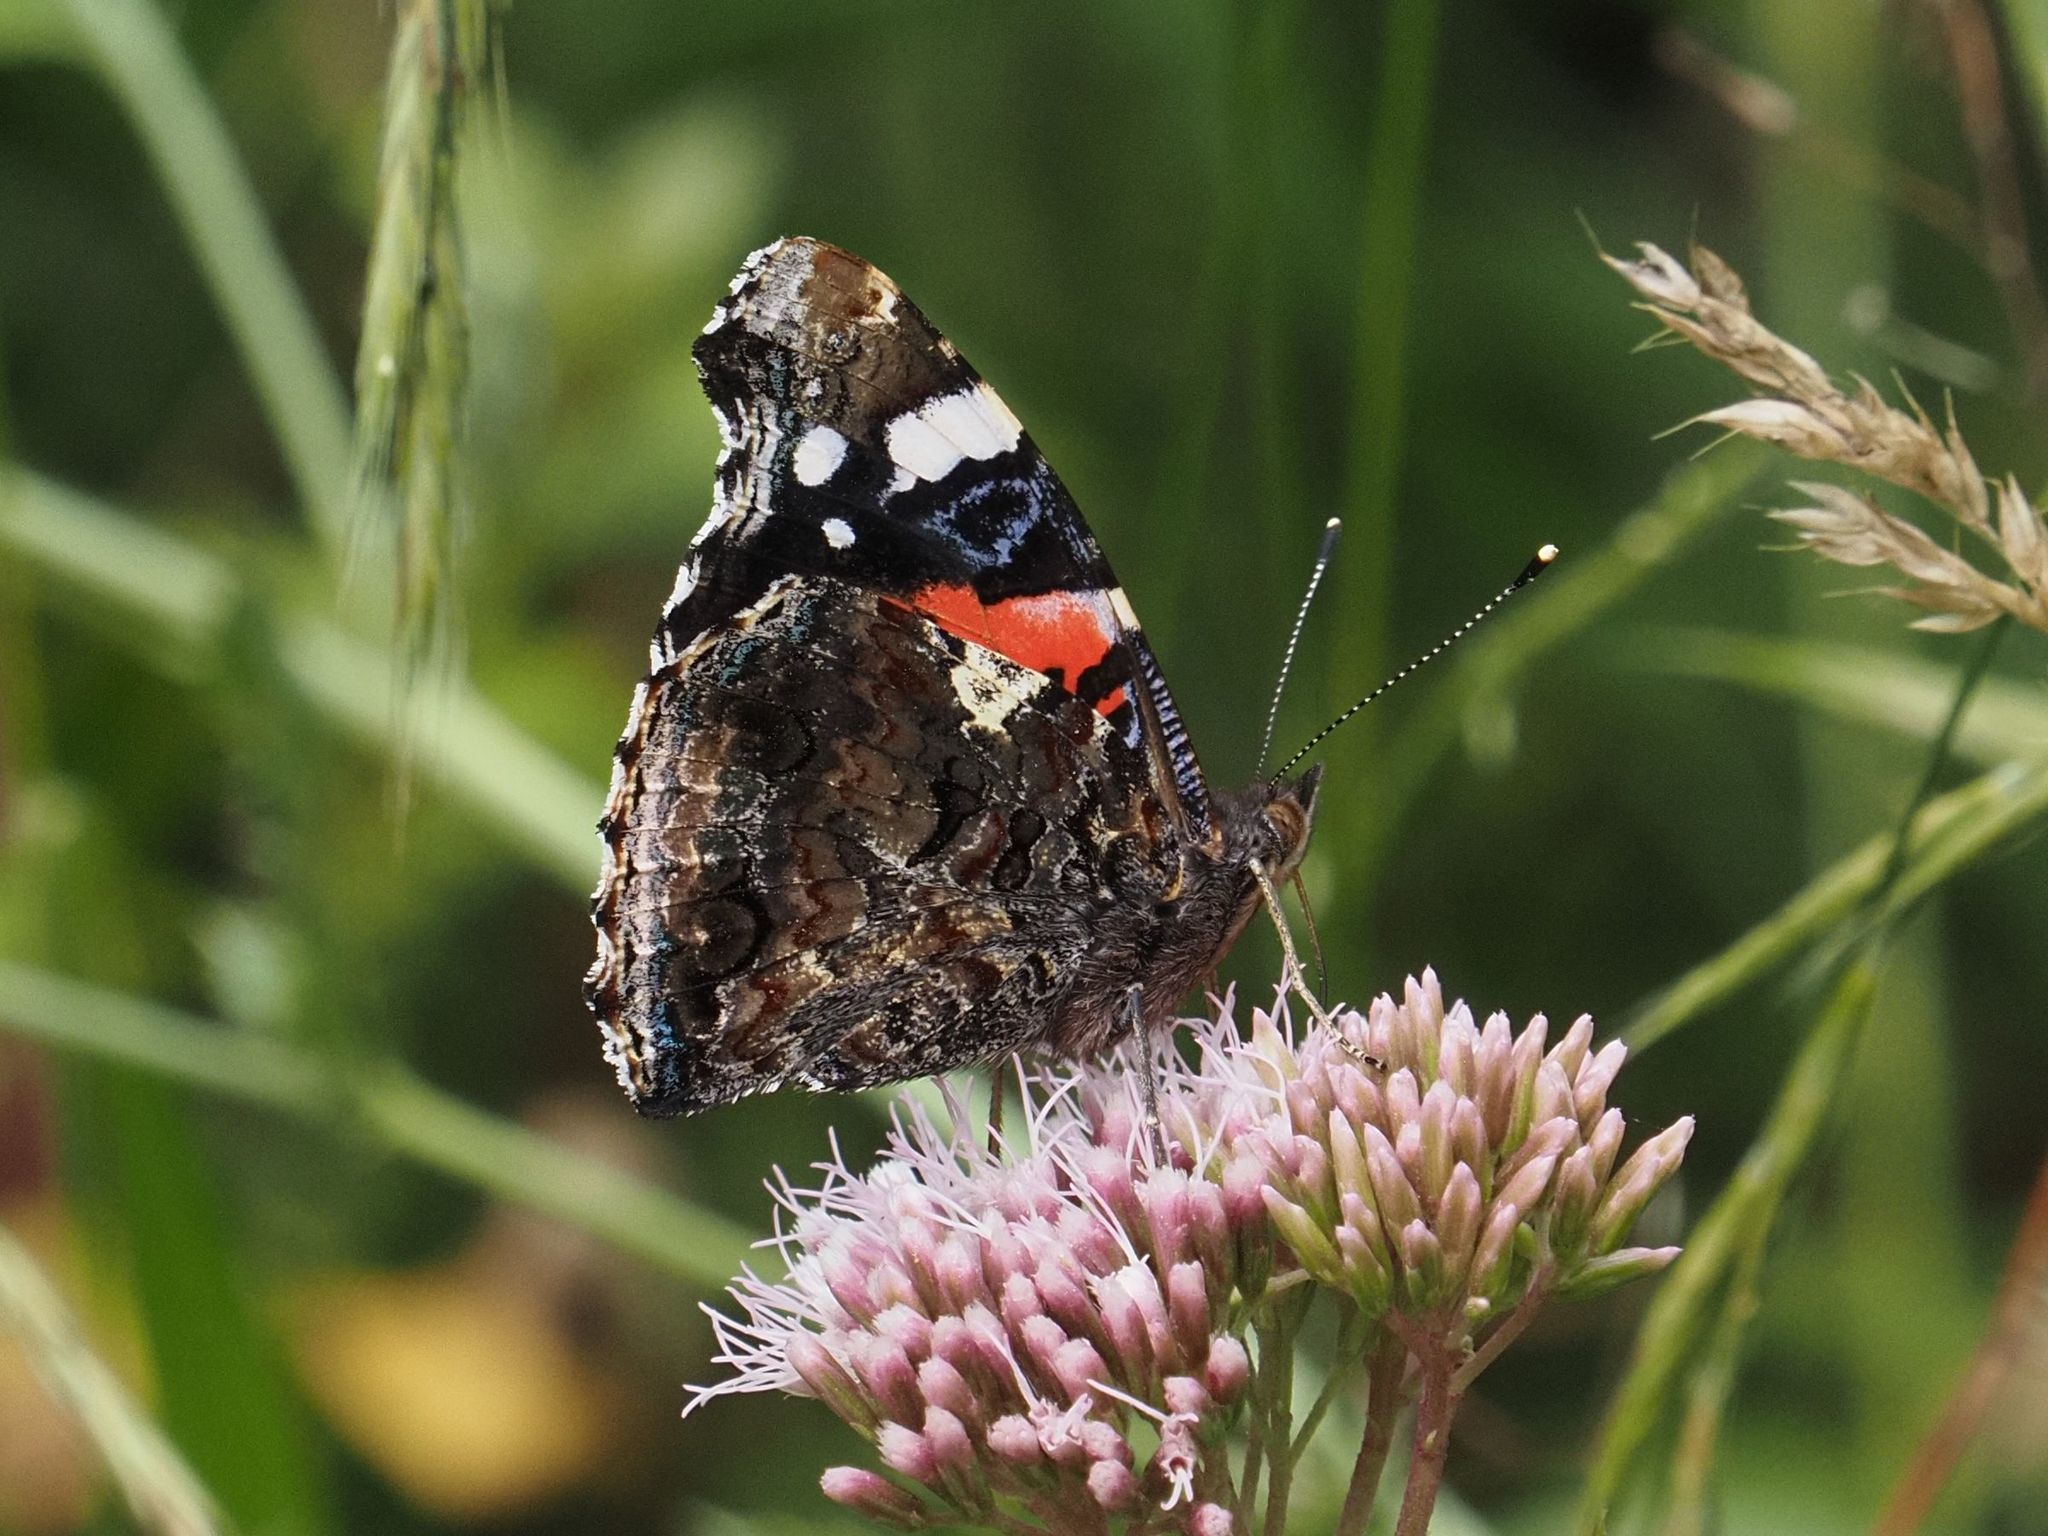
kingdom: Animalia
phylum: Arthropoda
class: Insecta
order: Lepidoptera
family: Nymphalidae
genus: Vanessa
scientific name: Vanessa atalanta
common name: Red admiral
